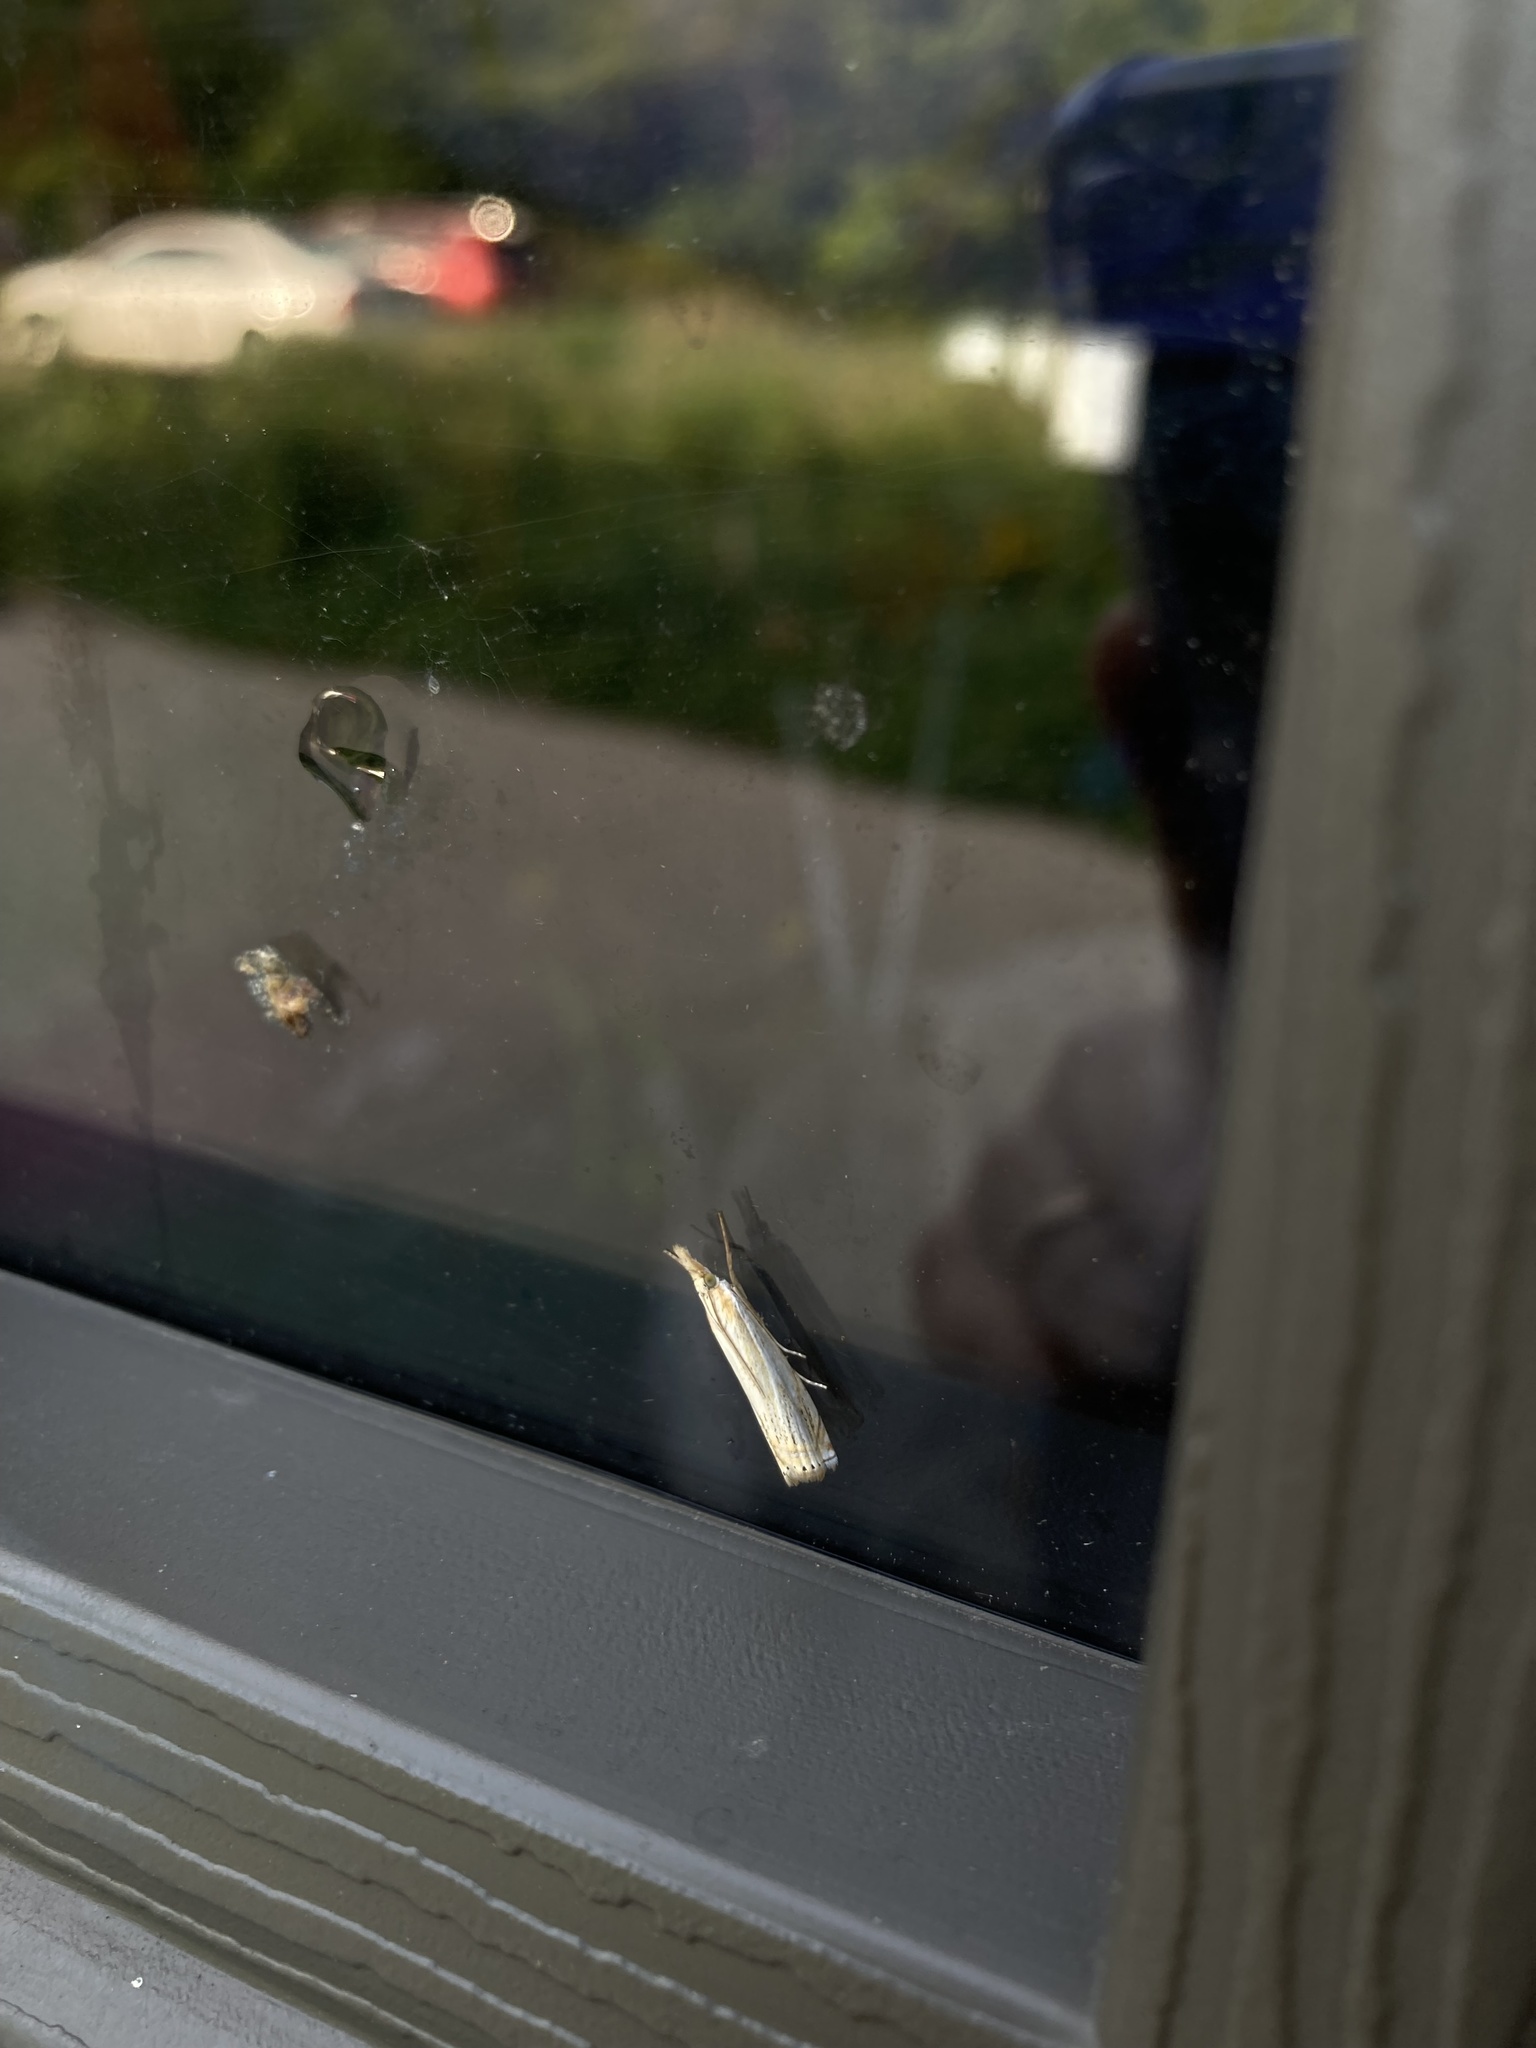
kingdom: Animalia
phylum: Arthropoda
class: Insecta
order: Lepidoptera
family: Crambidae
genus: Crambus
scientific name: Crambus
